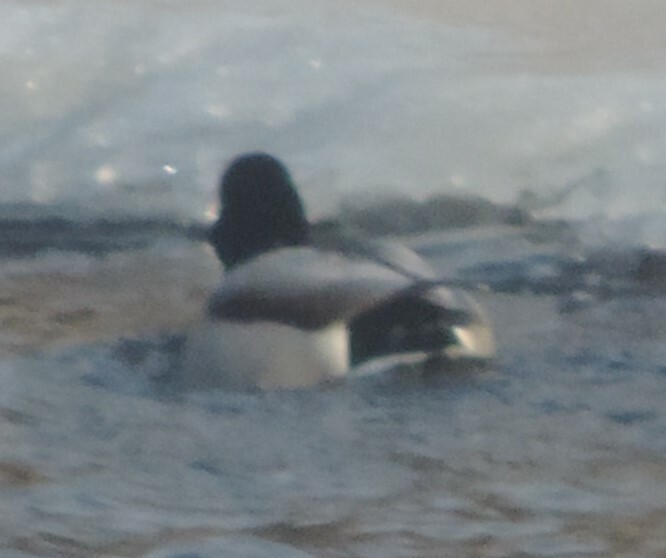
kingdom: Animalia
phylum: Chordata
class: Aves
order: Anseriformes
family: Anatidae
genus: Anas
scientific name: Anas platyrhynchos
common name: Mallard
